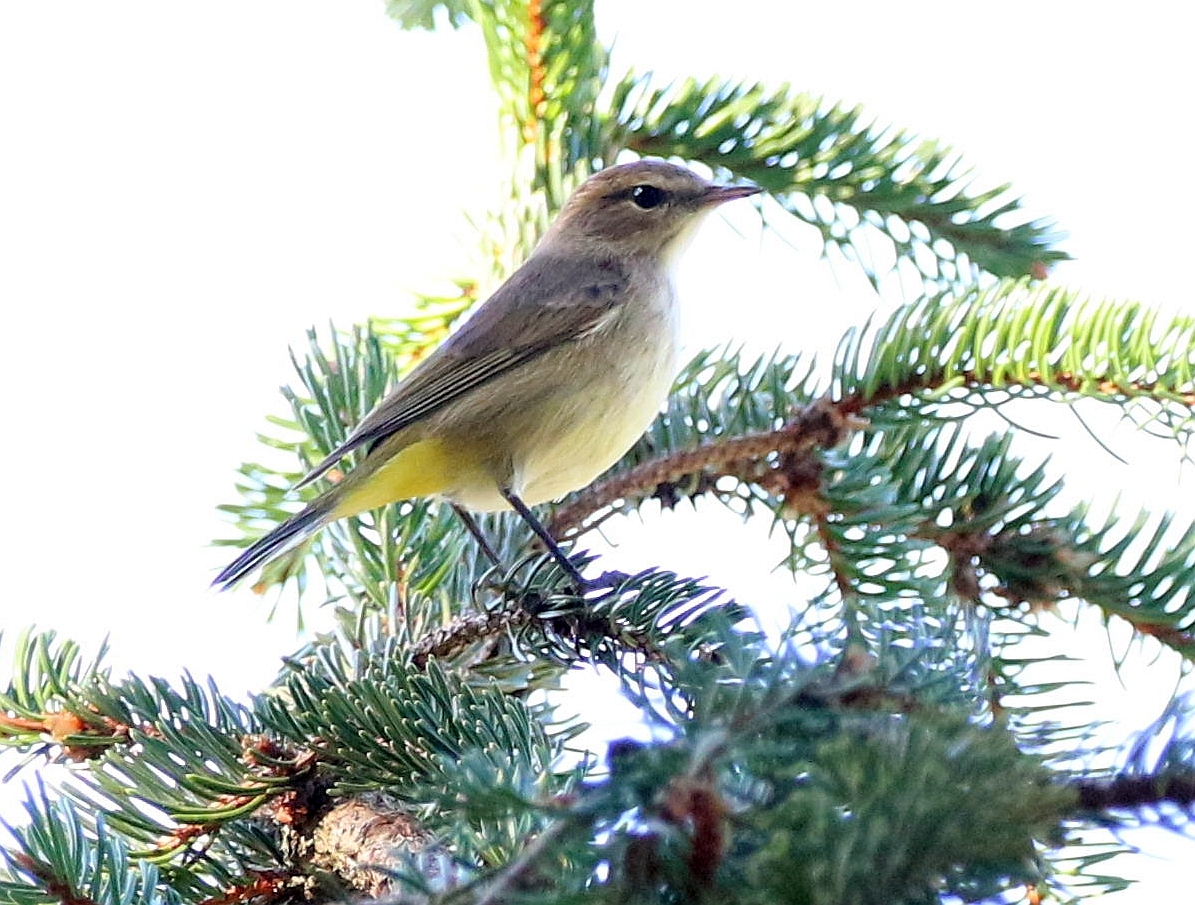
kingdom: Animalia
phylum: Chordata
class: Aves
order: Passeriformes
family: Parulidae
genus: Setophaga
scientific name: Setophaga palmarum
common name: Palm warbler
